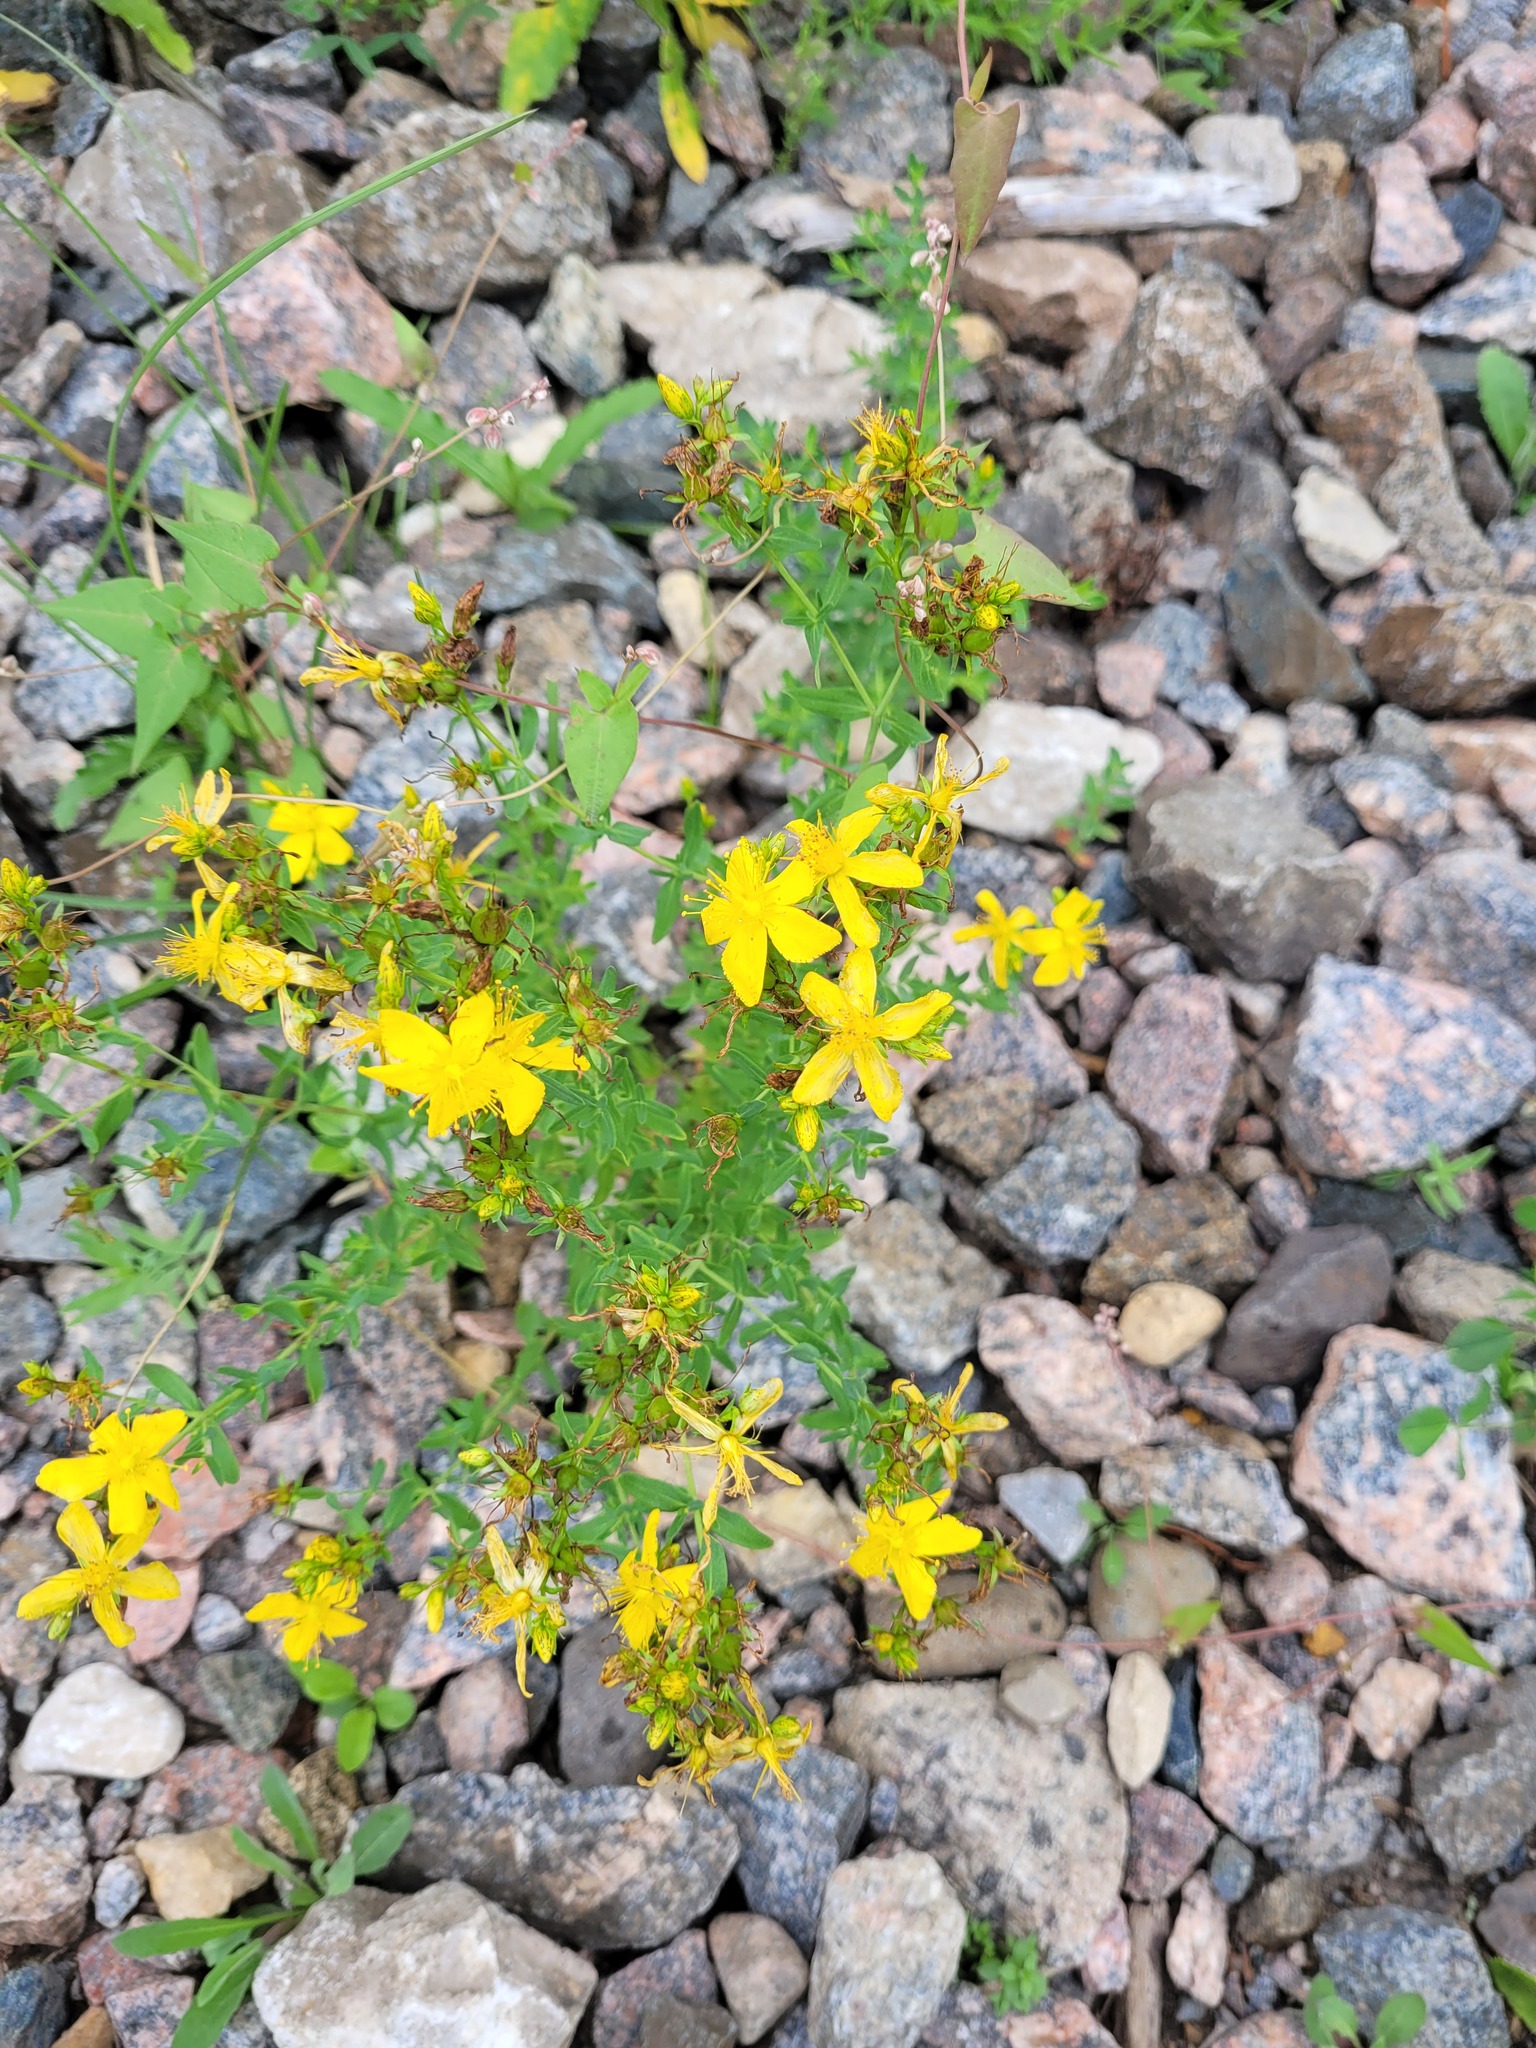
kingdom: Plantae
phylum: Tracheophyta
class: Magnoliopsida
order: Malpighiales
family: Hypericaceae
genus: Hypericum
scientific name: Hypericum perforatum
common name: Common st. johnswort
